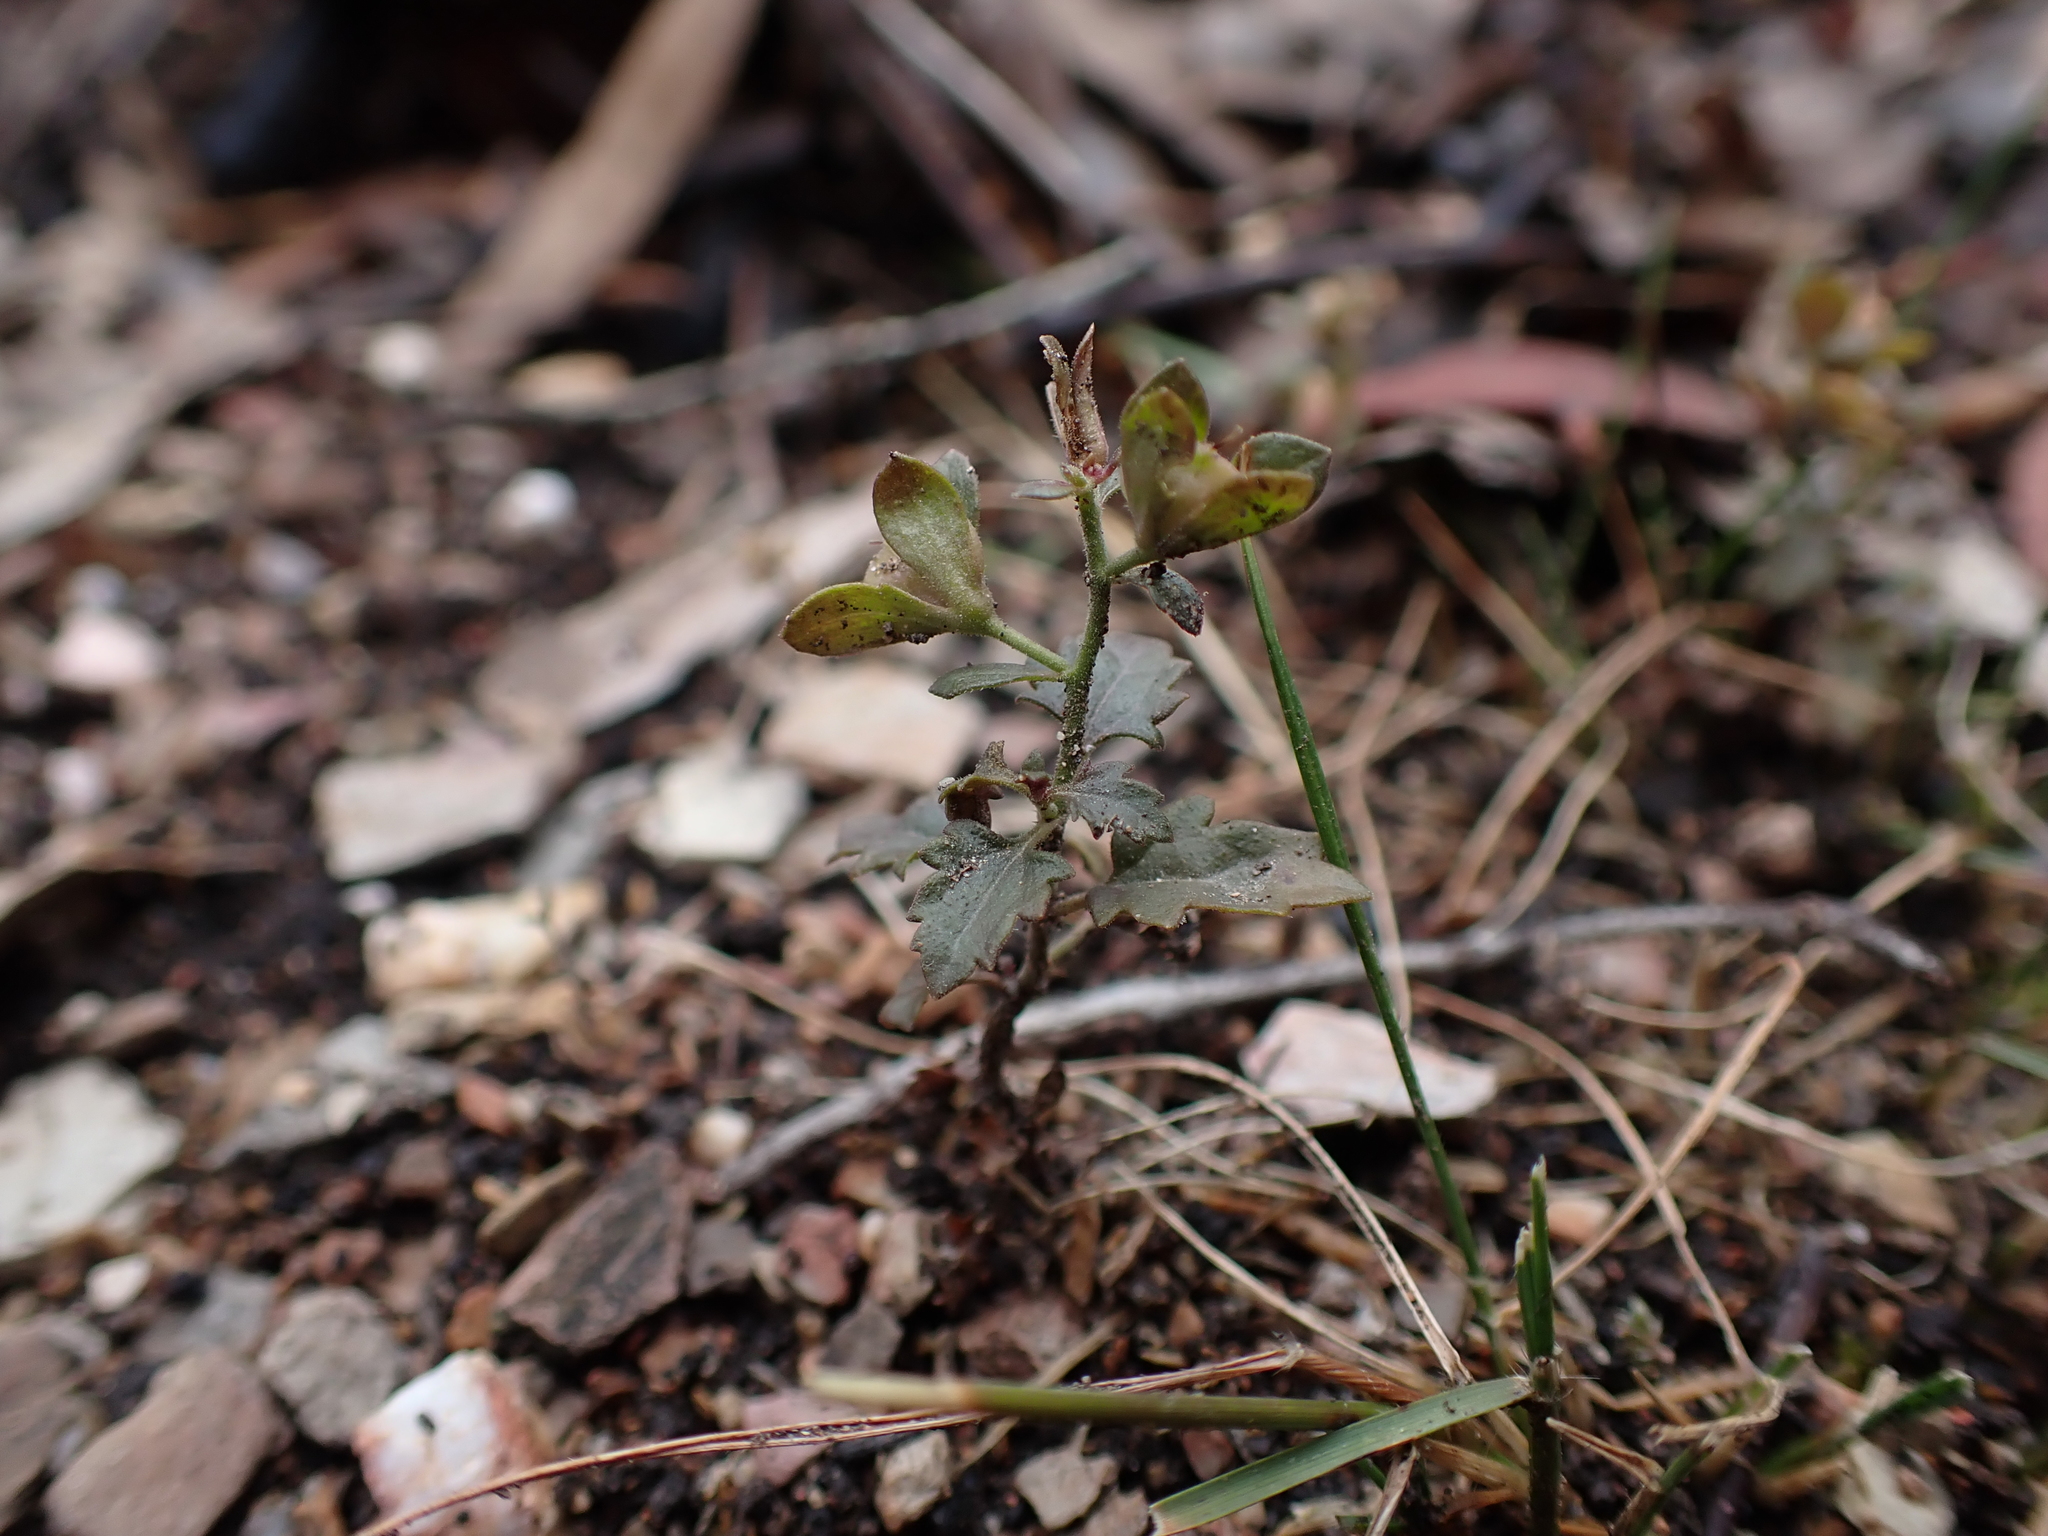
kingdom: Plantae
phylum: Tracheophyta
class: Magnoliopsida
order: Lamiales
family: Plantaginaceae
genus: Veronica
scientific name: Veronica plebeia
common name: Speedwell
